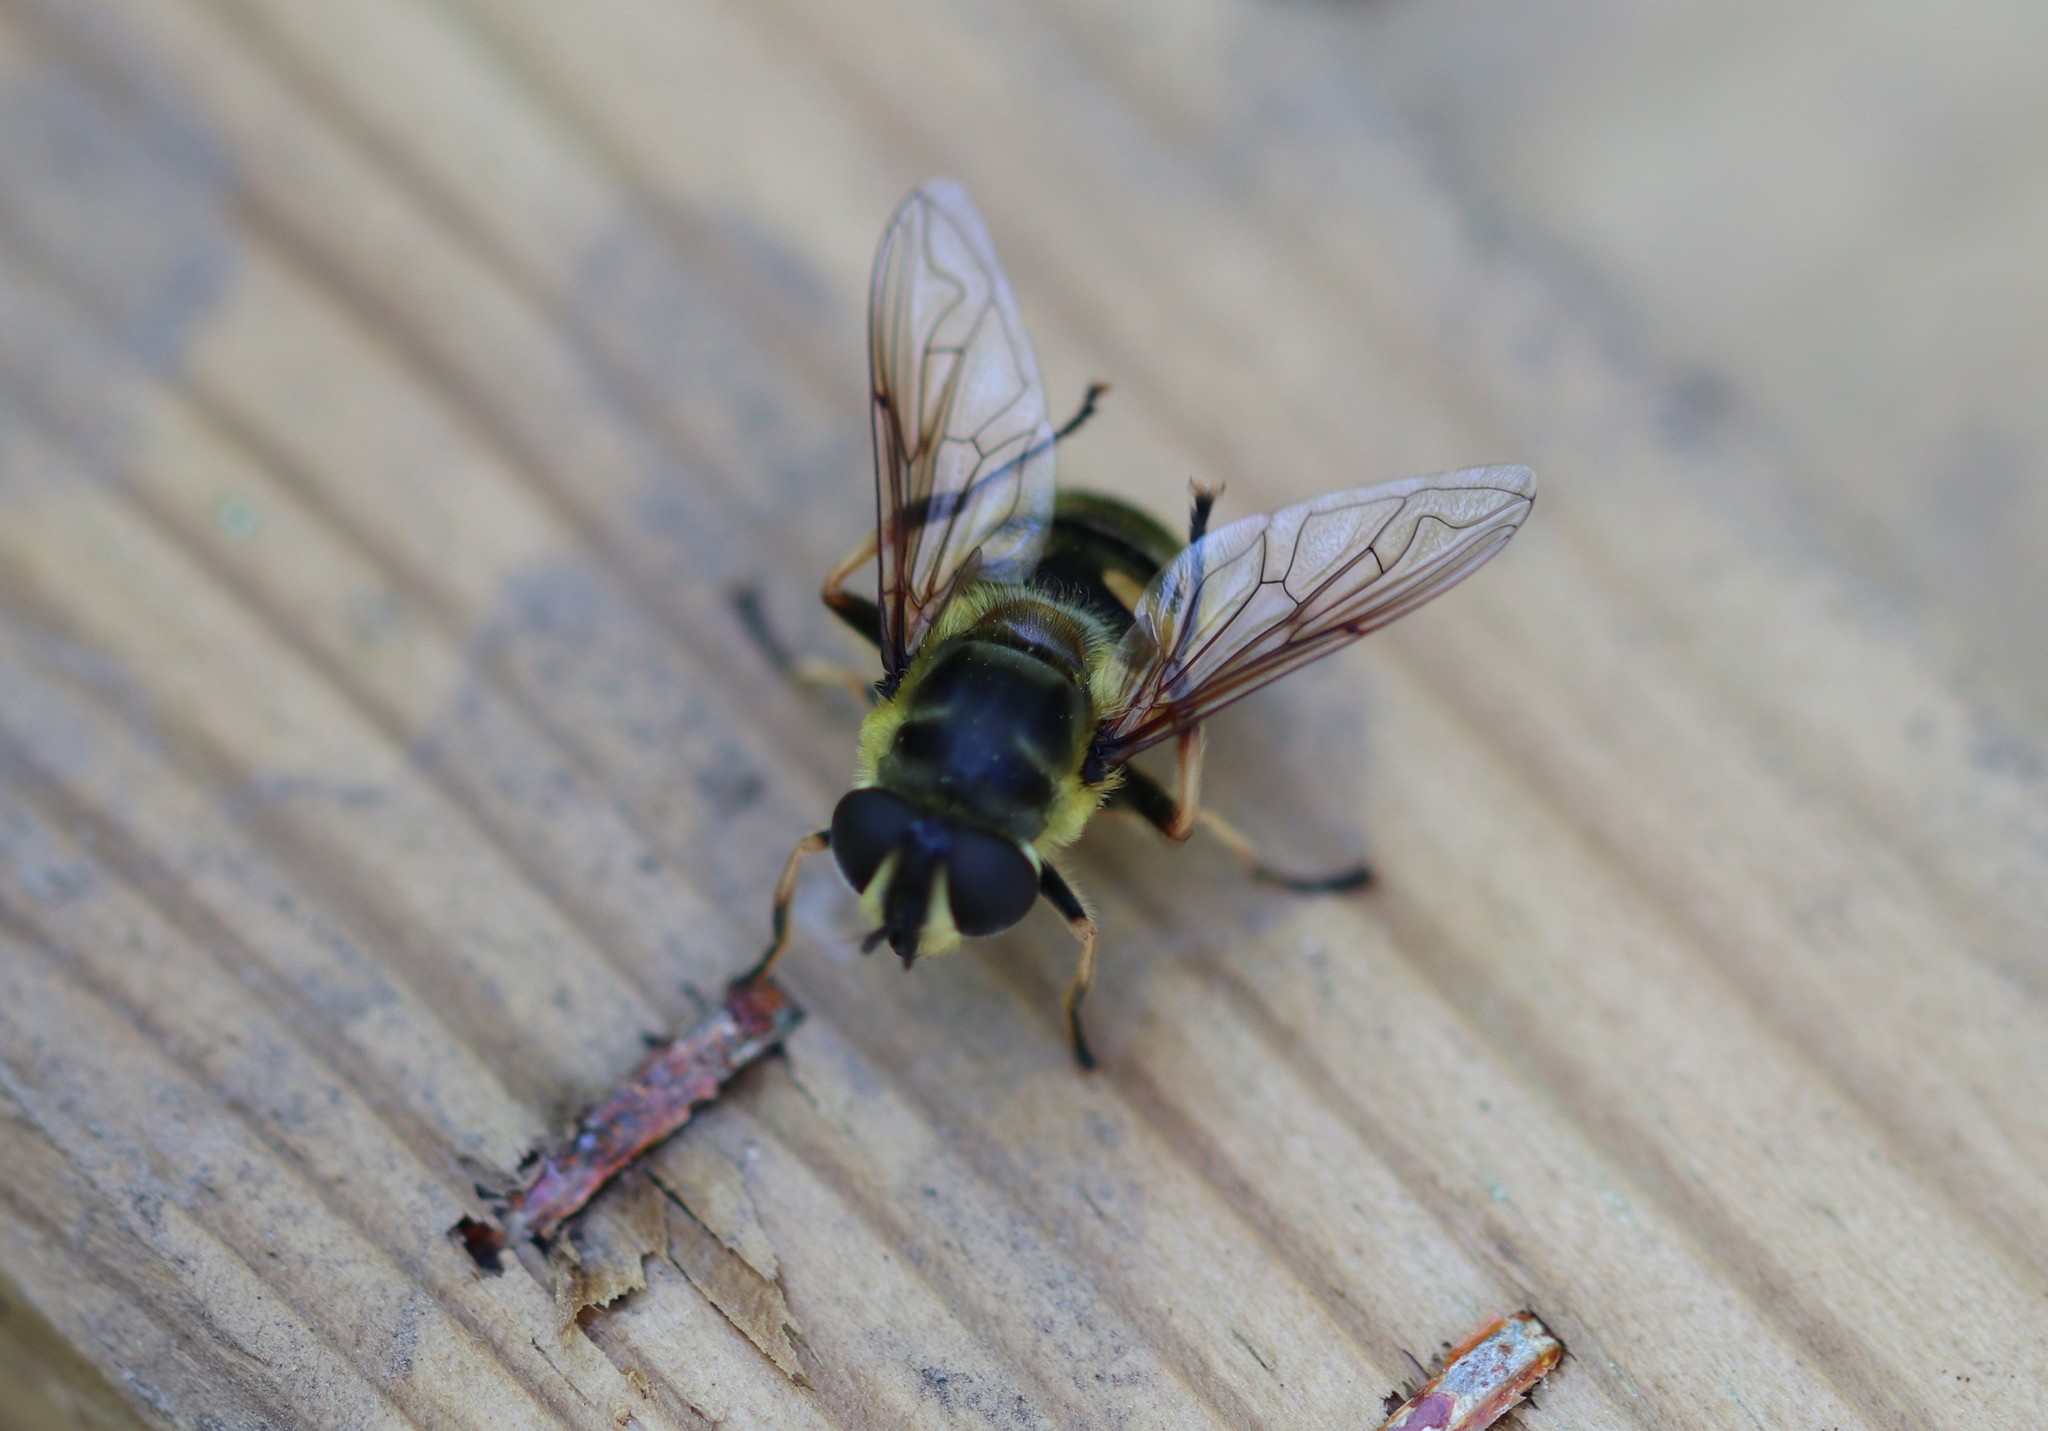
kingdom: Animalia
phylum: Arthropoda
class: Insecta
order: Diptera
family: Syrphidae
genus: Myathropa
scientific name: Myathropa florea
